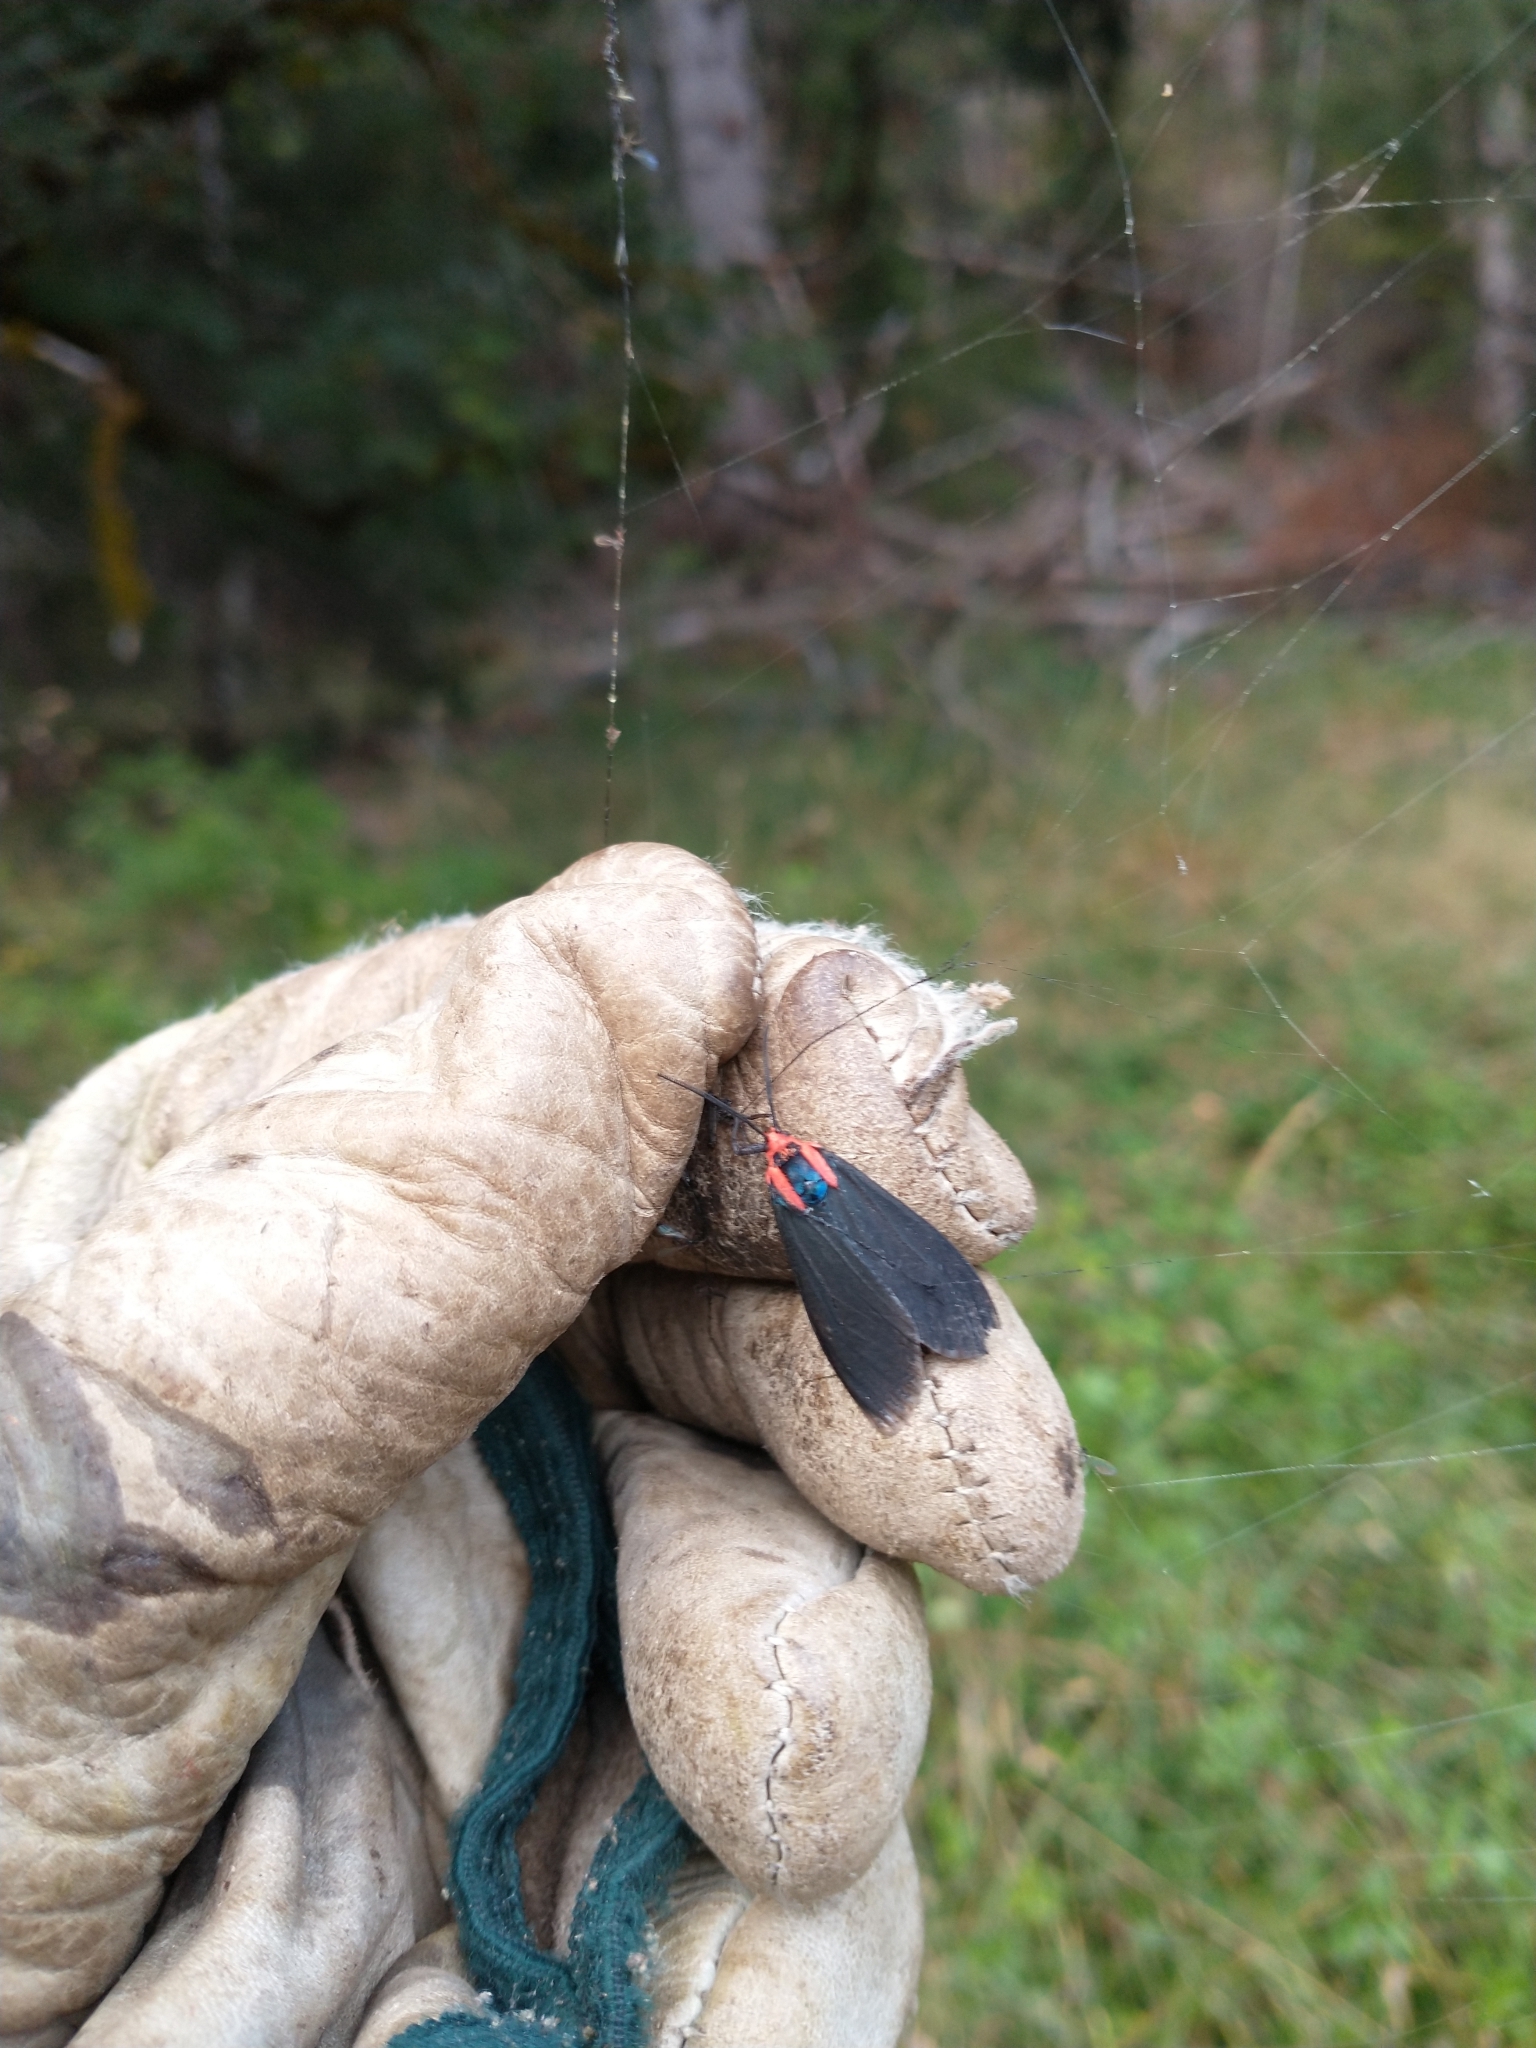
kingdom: Animalia
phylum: Arthropoda
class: Insecta
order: Lepidoptera
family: Erebidae
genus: Ctenucha
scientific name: Ctenucha rubroscapus
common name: Red-shouldered ctenucha
